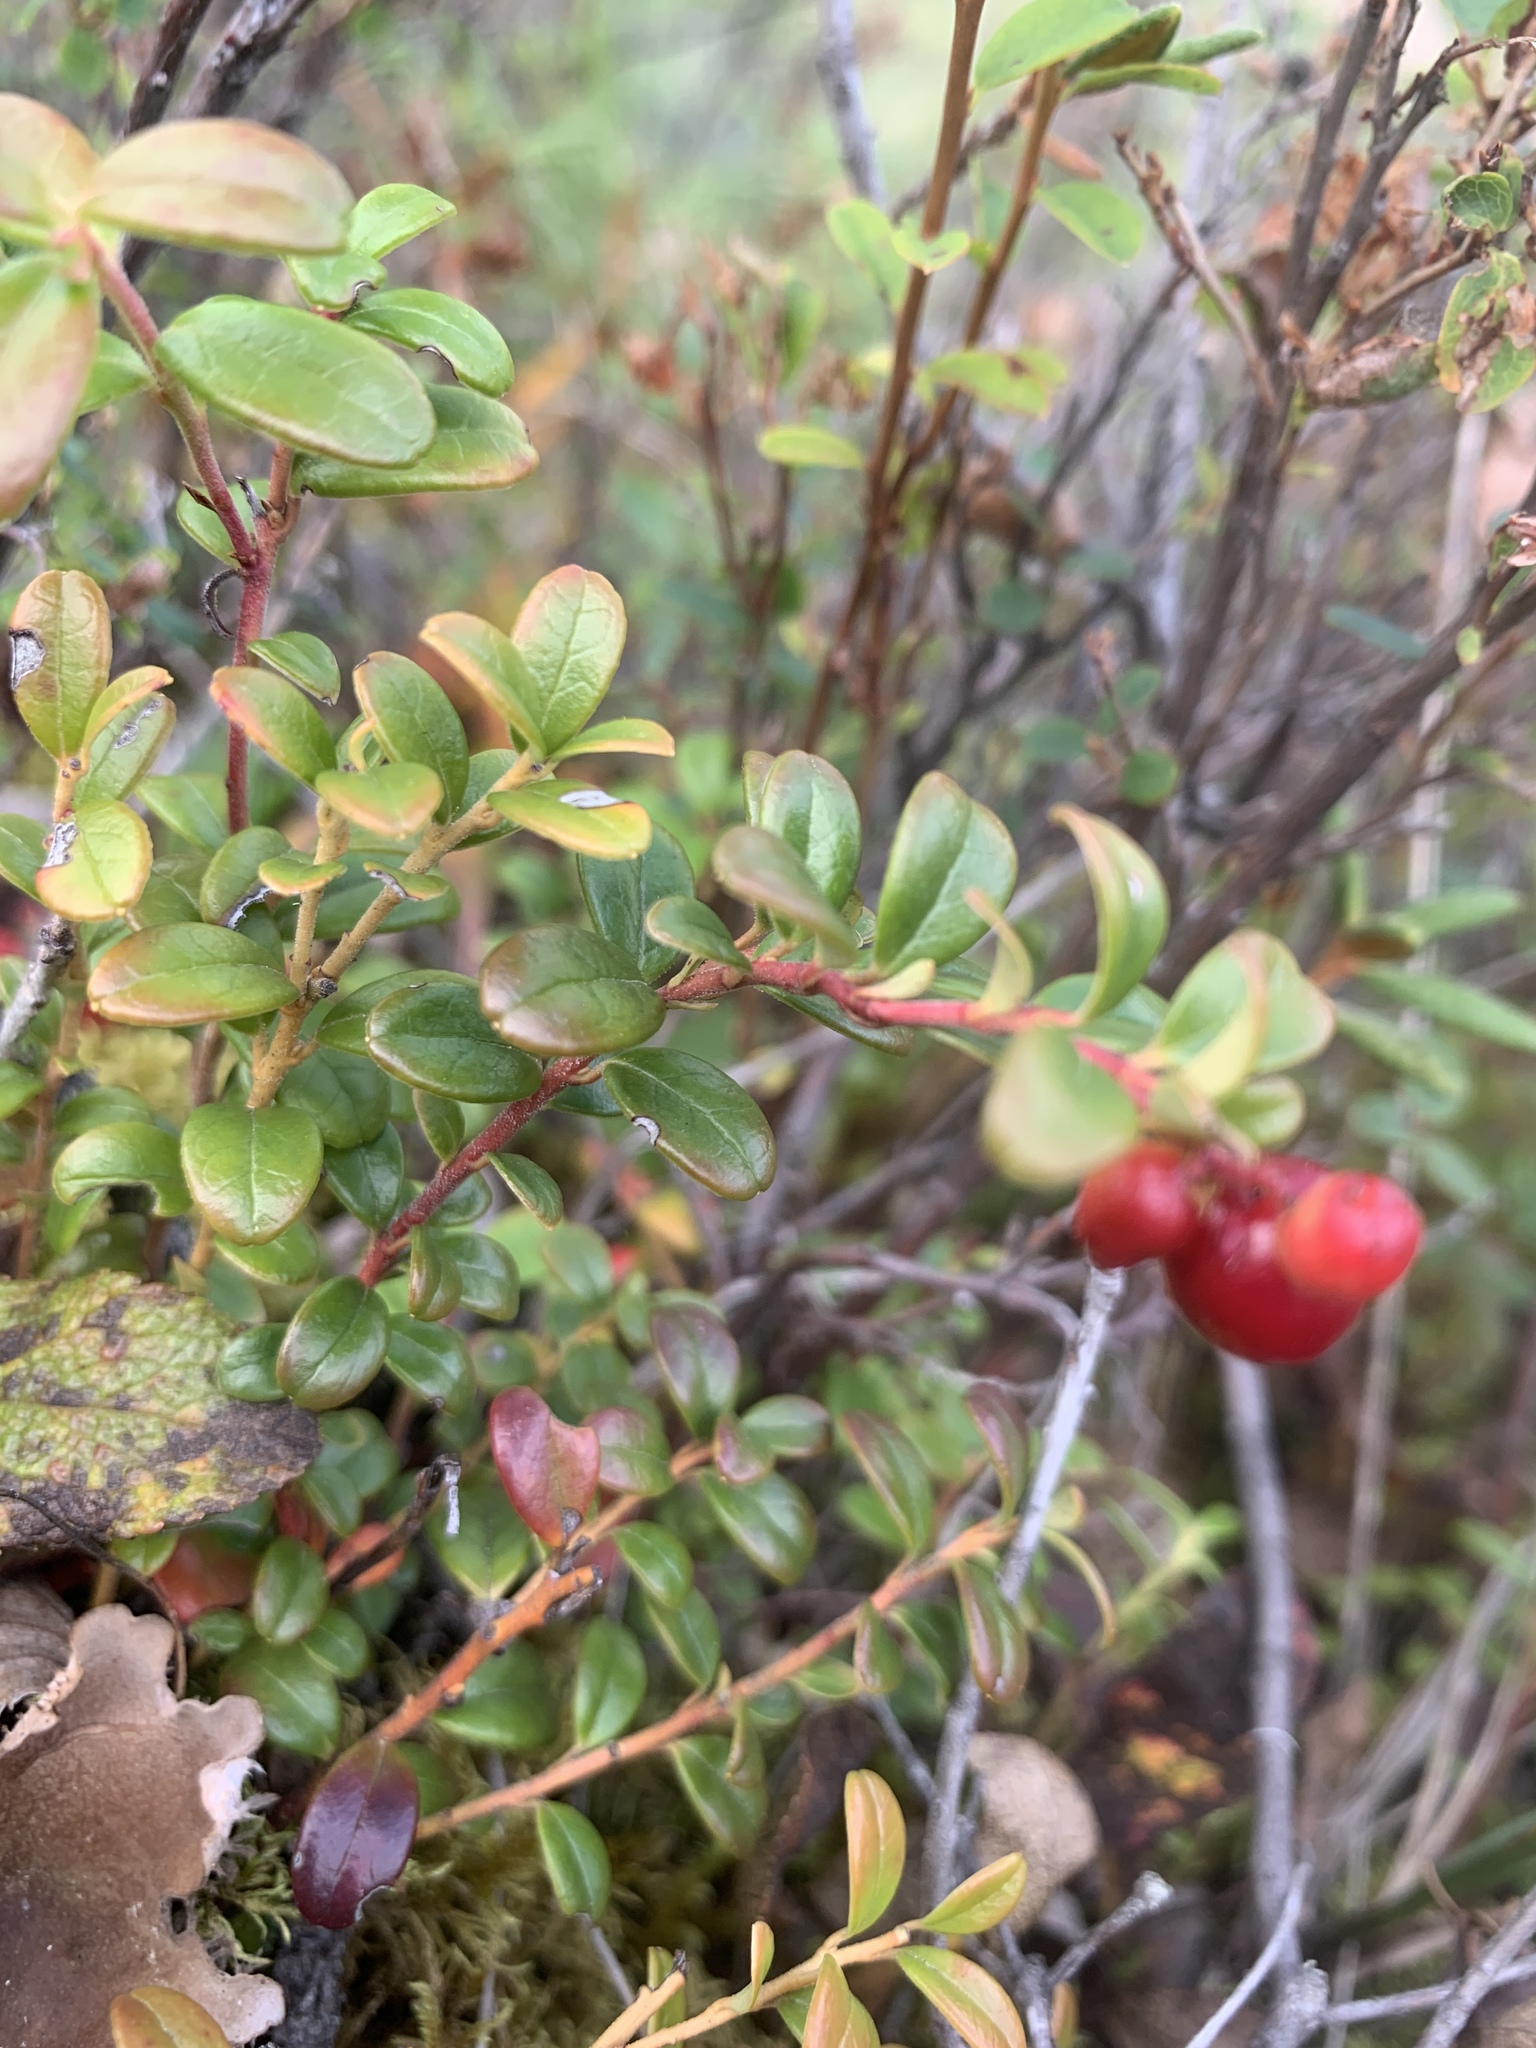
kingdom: Plantae
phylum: Tracheophyta
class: Magnoliopsida
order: Ericales
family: Ericaceae
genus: Vaccinium
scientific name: Vaccinium vitis-idaea
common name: Cowberry
